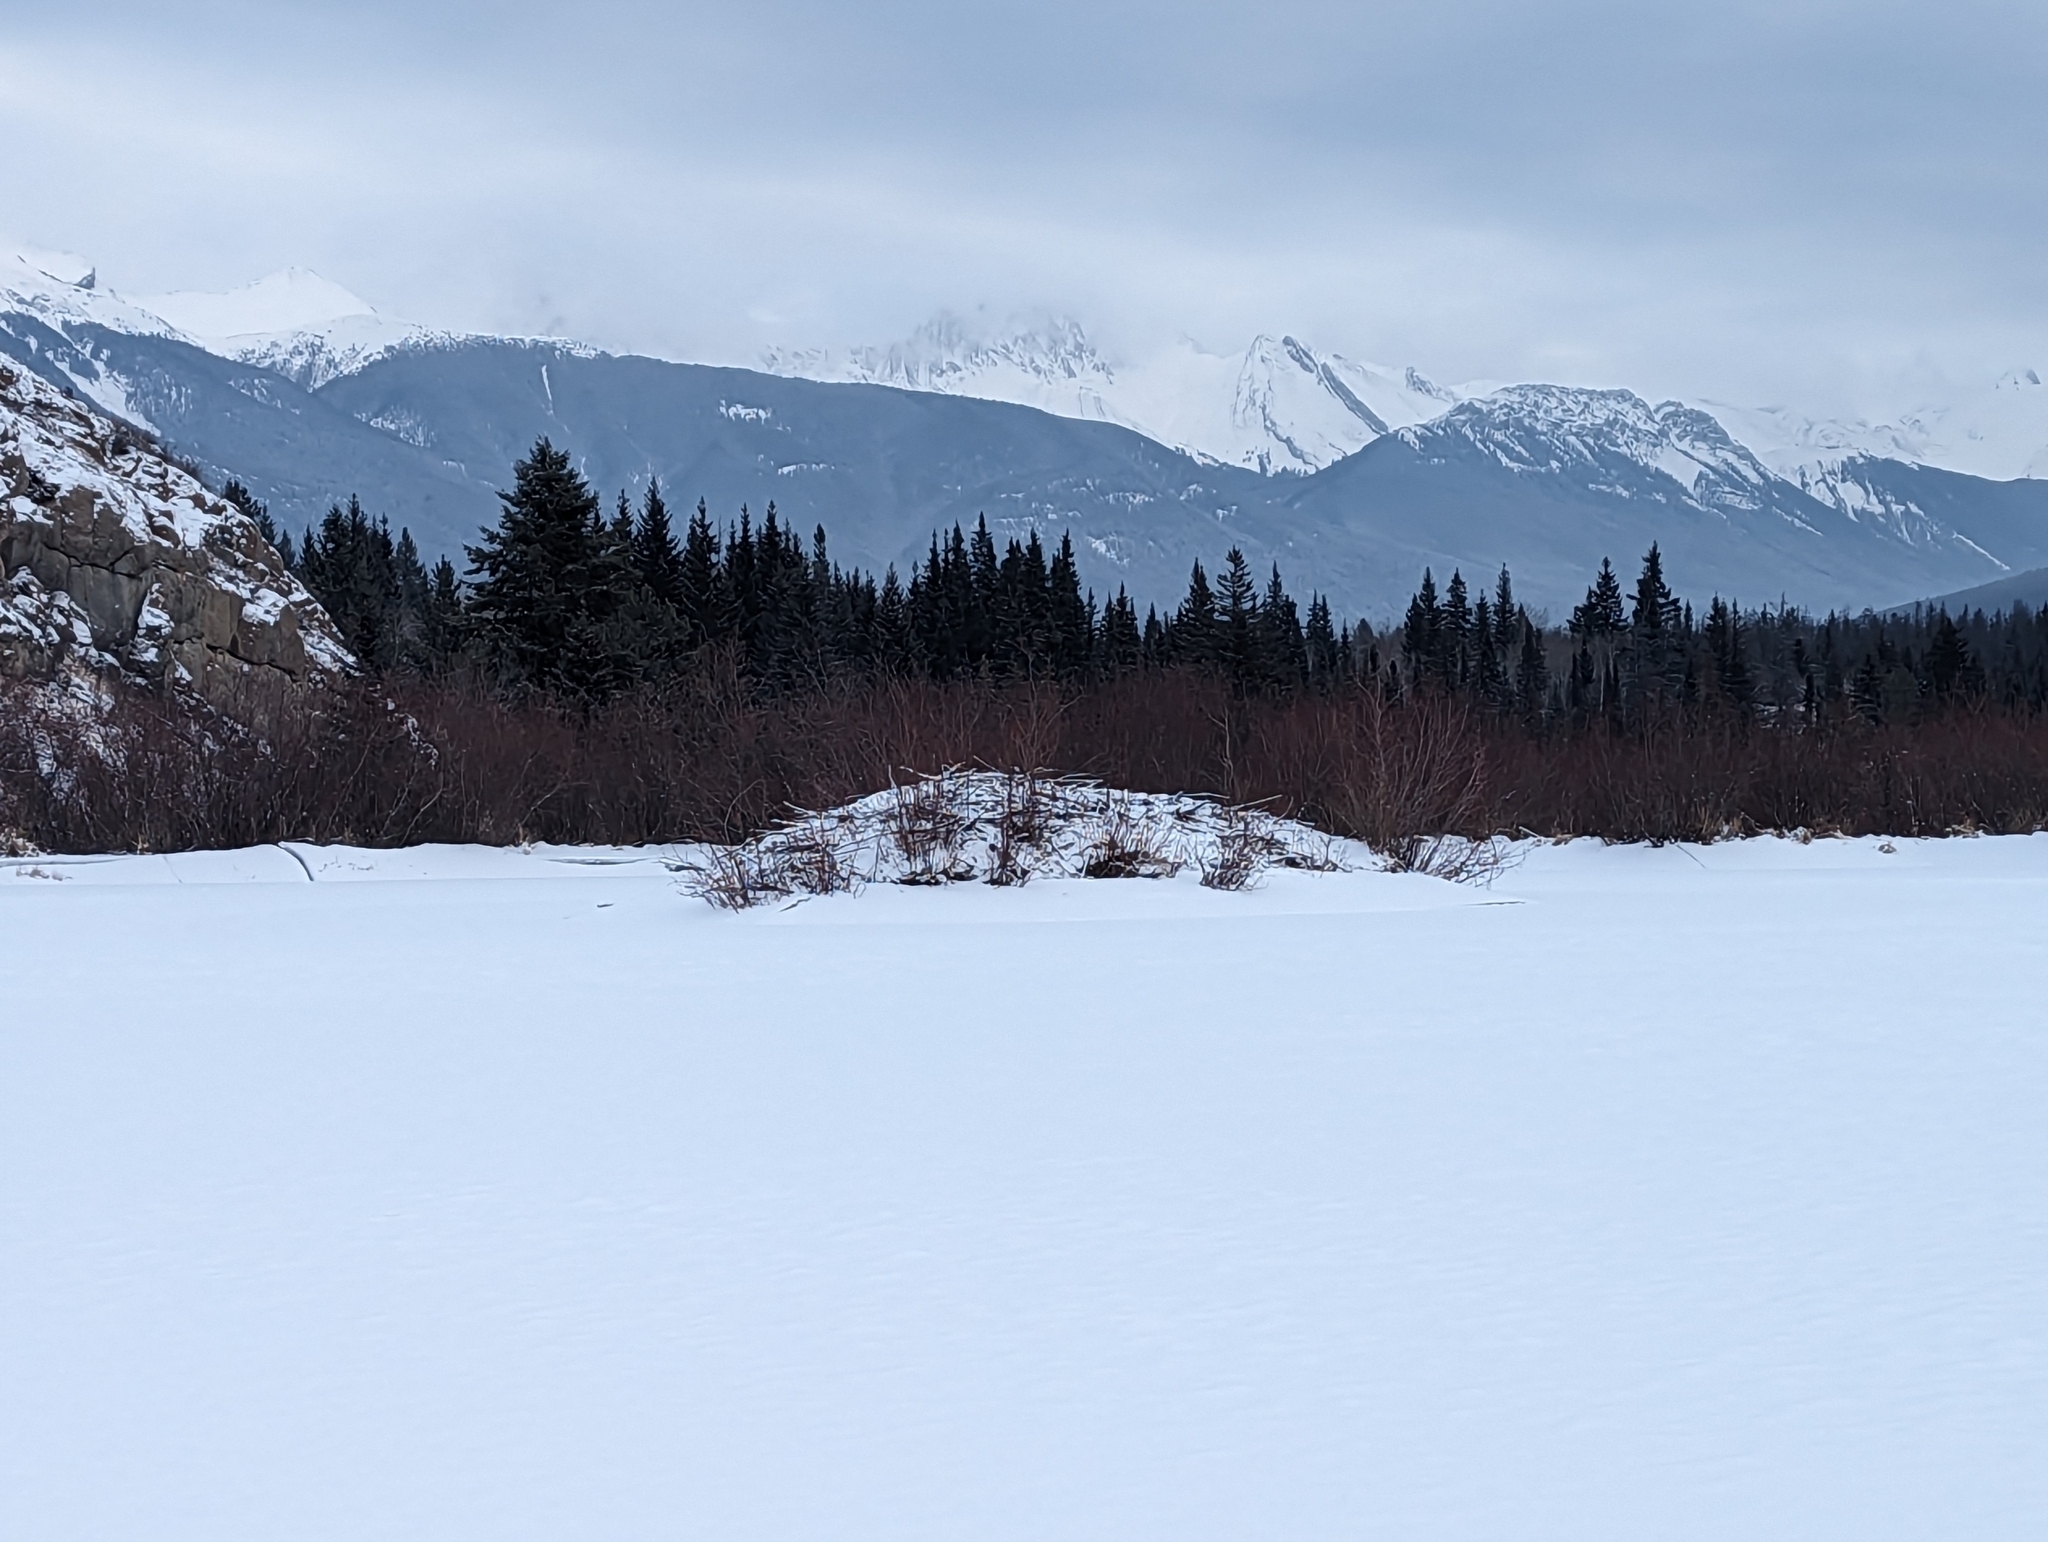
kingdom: Animalia
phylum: Chordata
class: Mammalia
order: Rodentia
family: Castoridae
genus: Castor
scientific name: Castor canadensis
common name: American beaver
